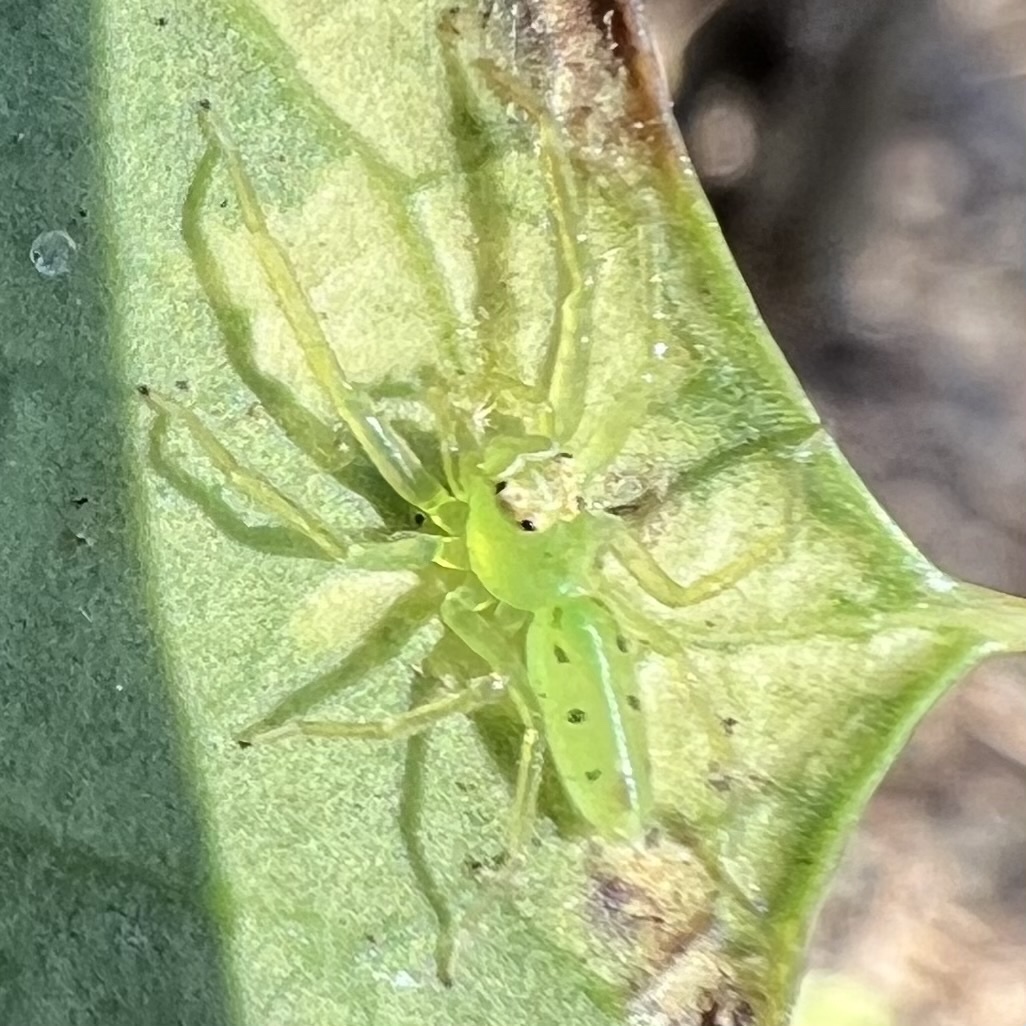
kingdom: Animalia
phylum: Arthropoda
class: Arachnida
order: Araneae
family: Salticidae
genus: Lyssomanes
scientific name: Lyssomanes viridis
